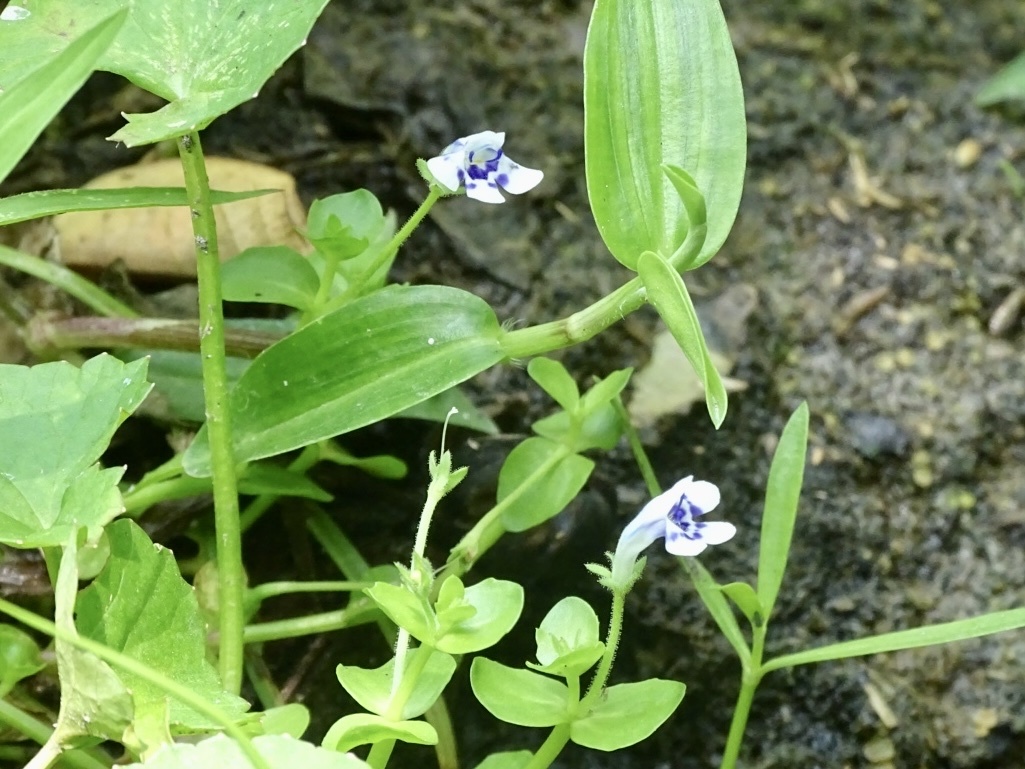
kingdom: Plantae
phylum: Tracheophyta
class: Magnoliopsida
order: Lamiales
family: Linderniaceae
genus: Lindernia
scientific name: Lindernia rotundifolia
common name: Baby’s tears
